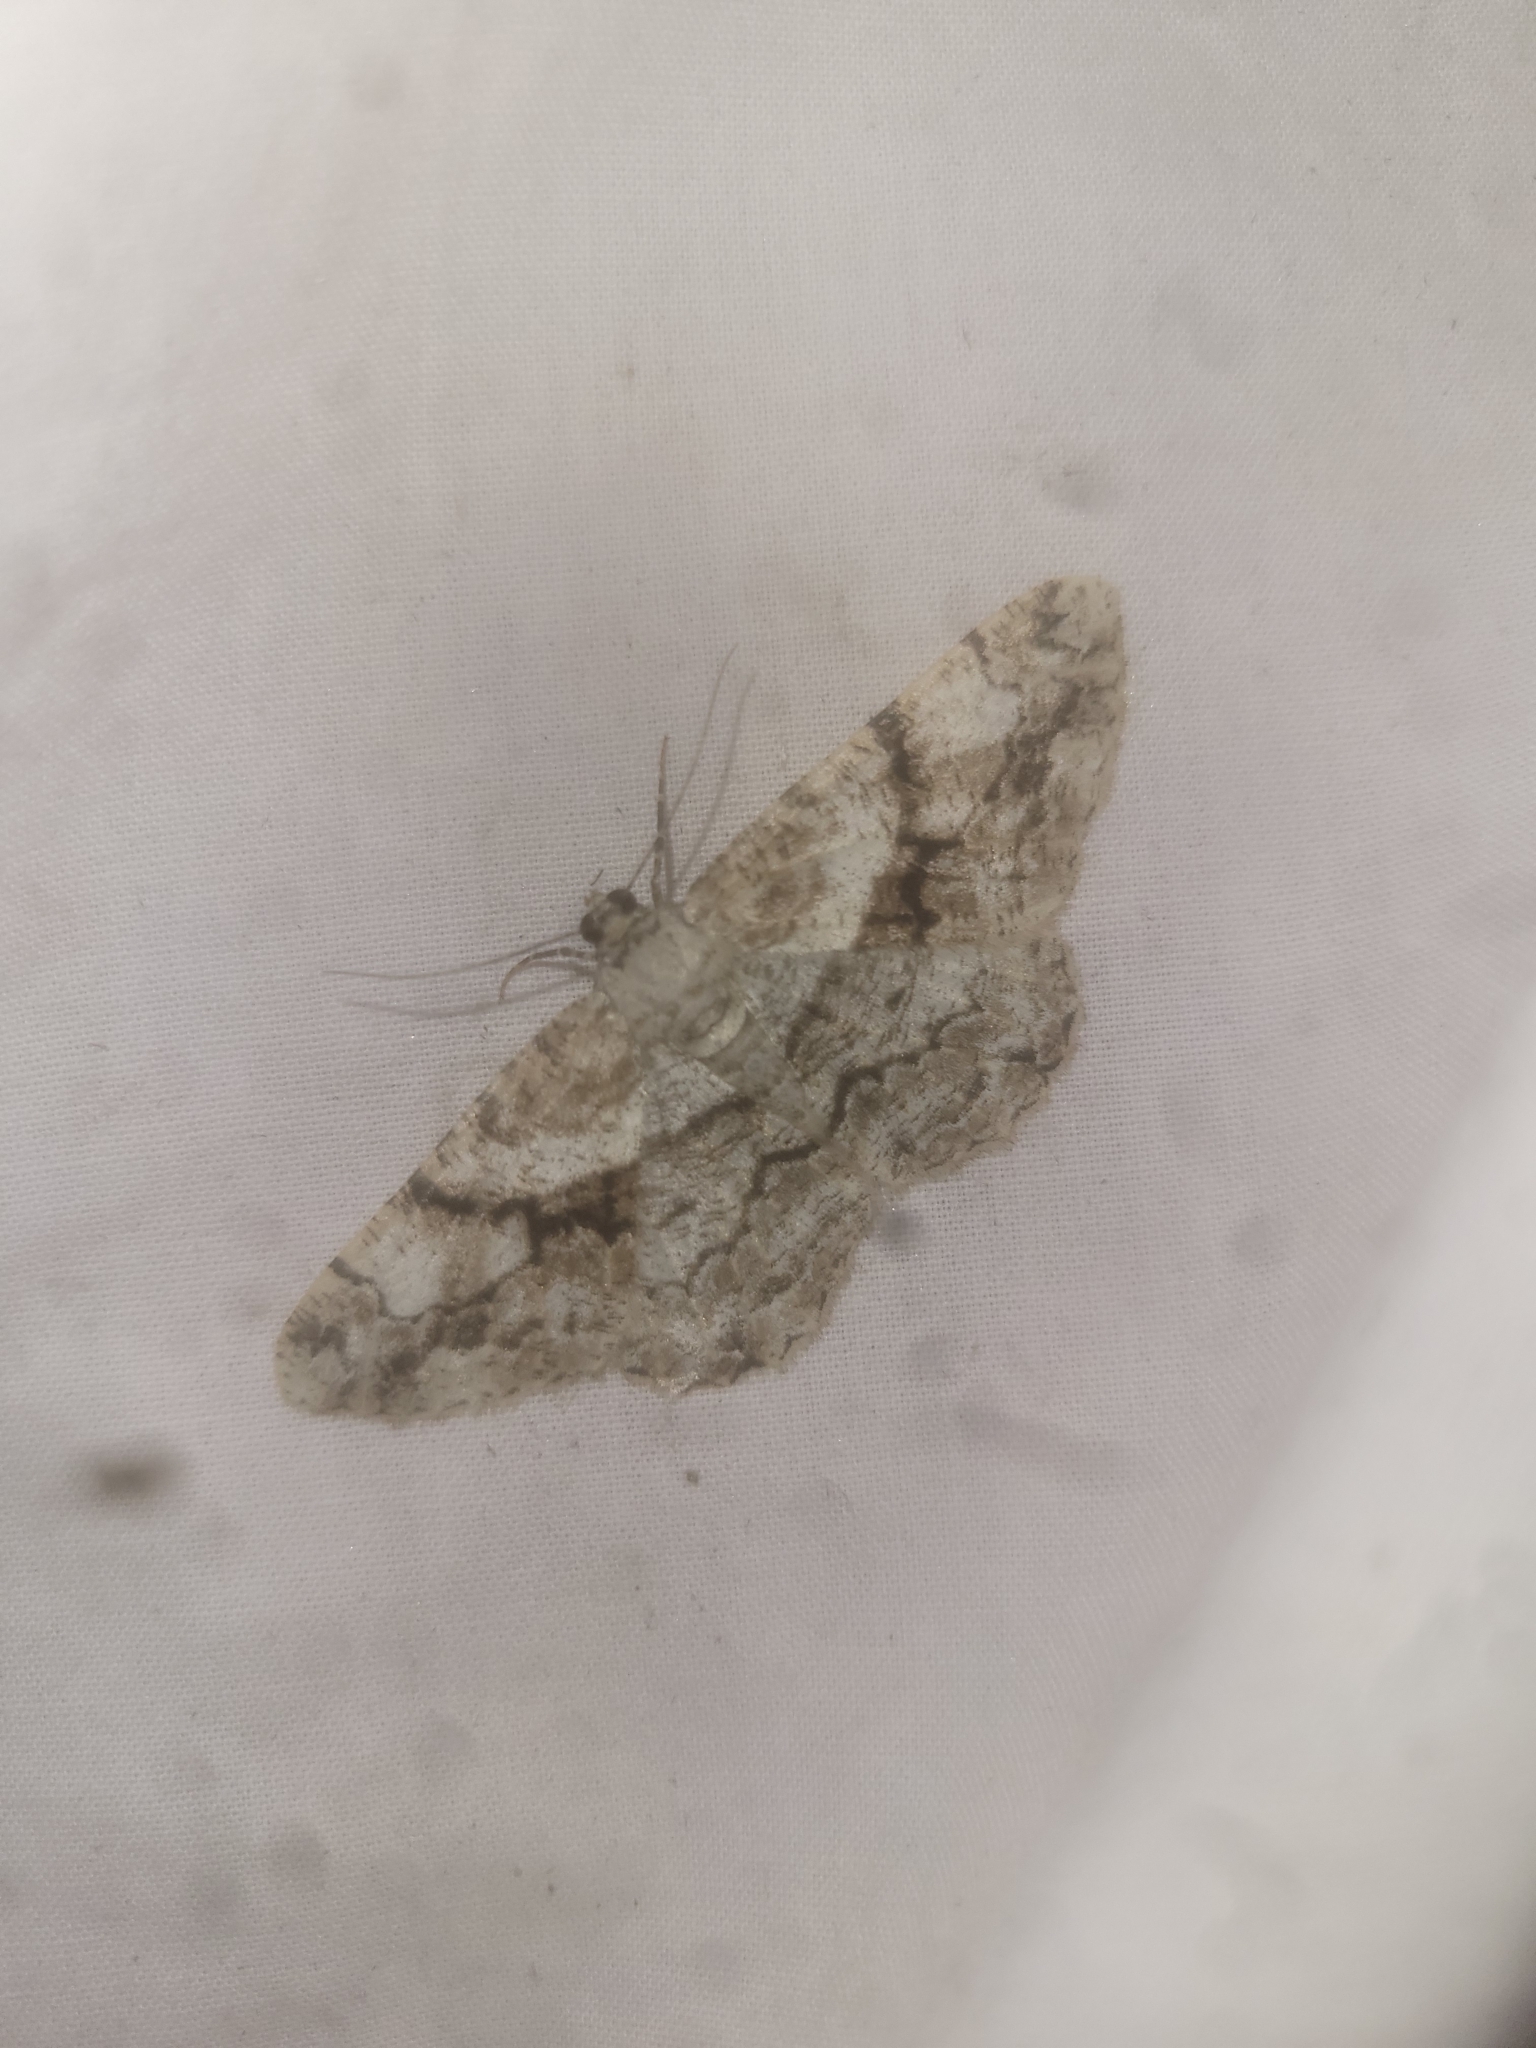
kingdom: Animalia
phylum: Arthropoda
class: Insecta
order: Lepidoptera
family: Geometridae
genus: Peribatodes
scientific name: Peribatodes umbraria
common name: Olive-tree beauty
